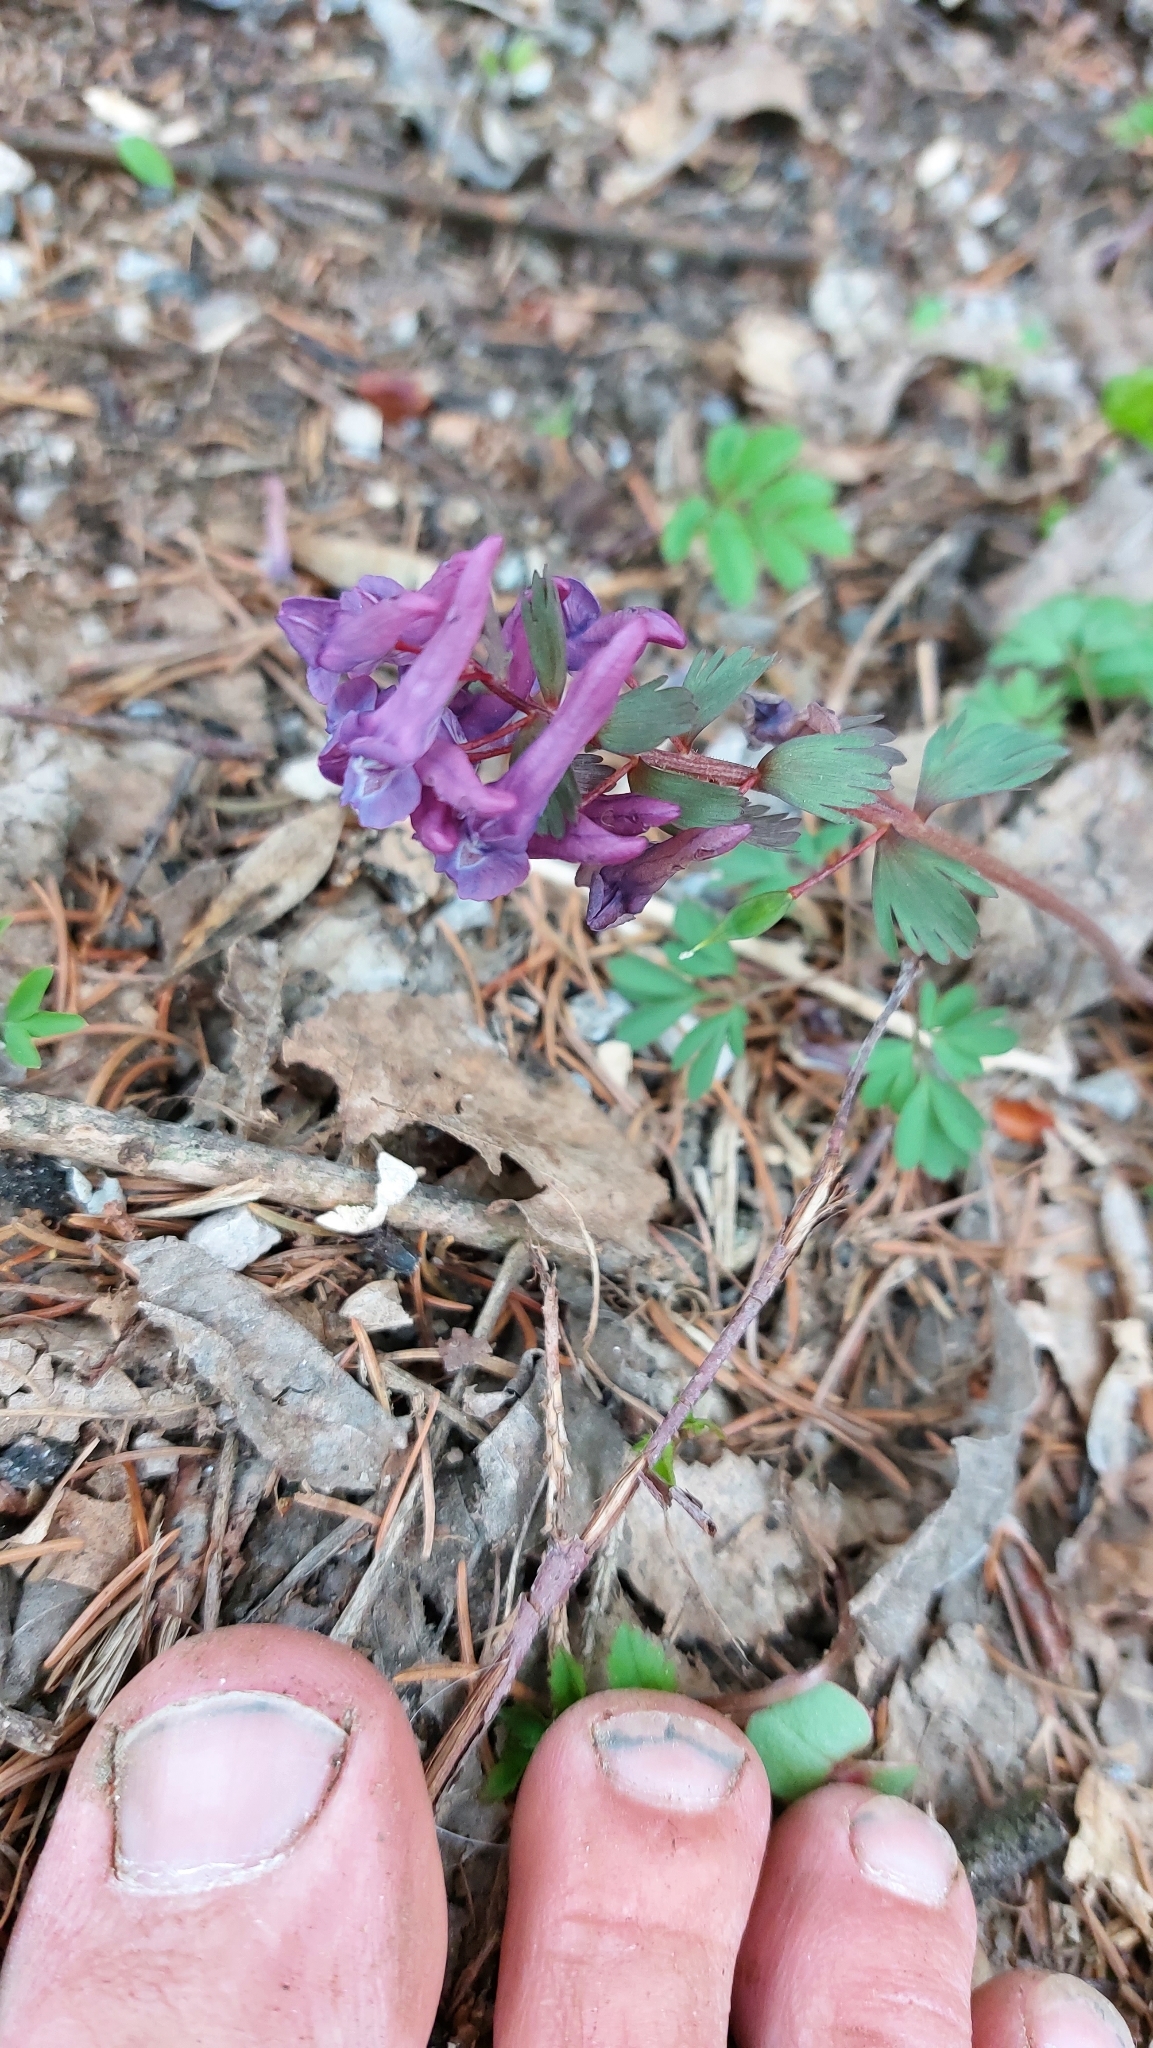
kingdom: Plantae
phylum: Tracheophyta
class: Magnoliopsida
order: Ranunculales
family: Papaveraceae
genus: Corydalis
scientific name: Corydalis solida
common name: Bird-in-a-bush
